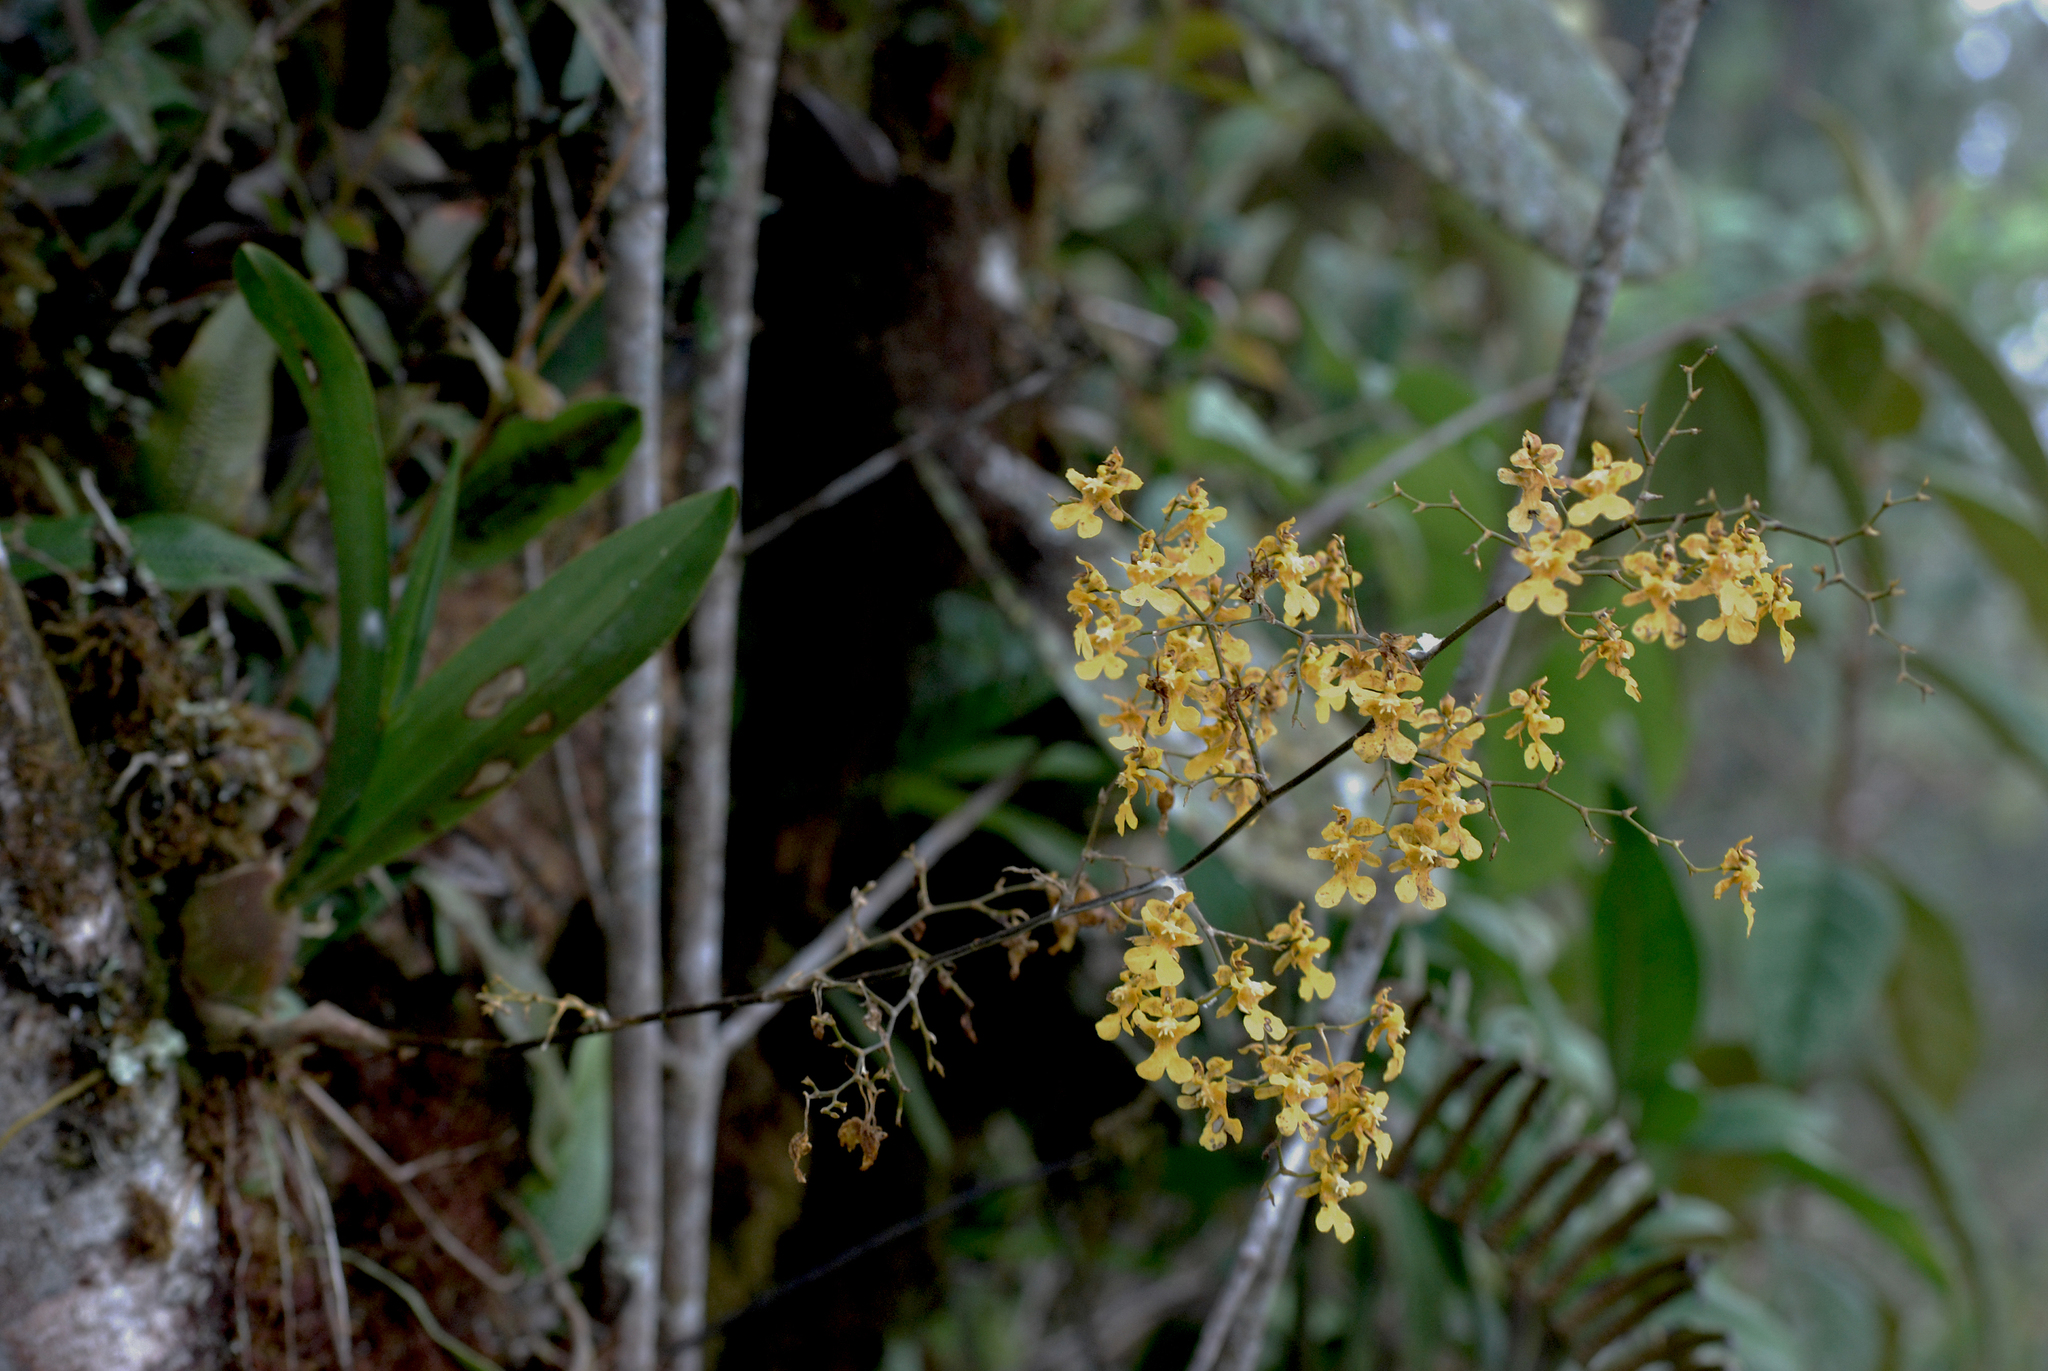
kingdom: Plantae
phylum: Tracheophyta
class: Liliopsida
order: Asparagales
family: Orchidaceae
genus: Oncidium
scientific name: Oncidium ornithorhynchum
